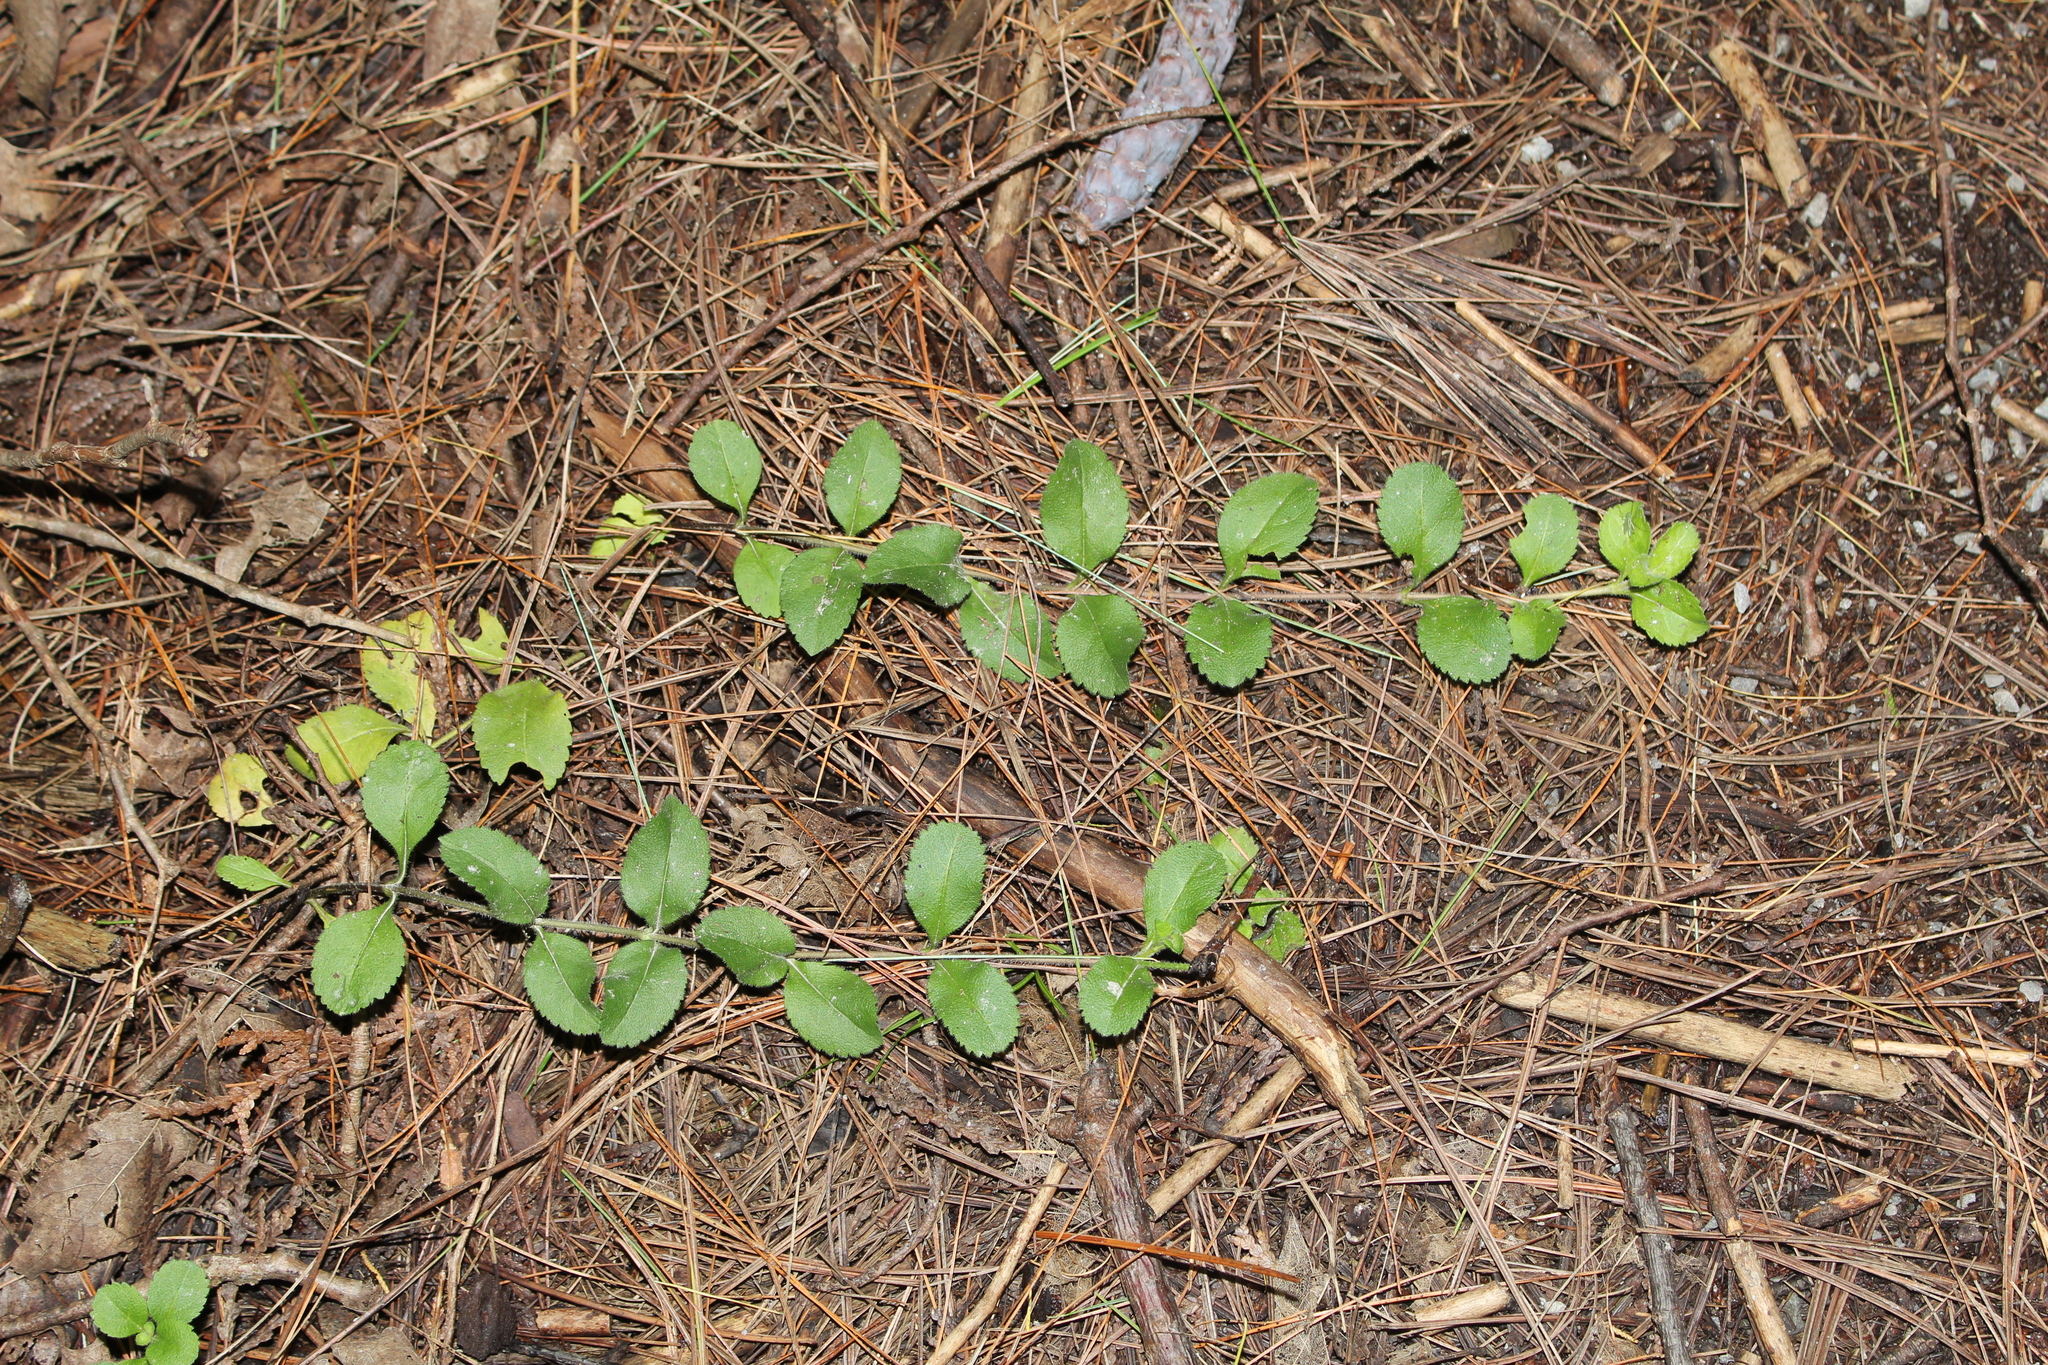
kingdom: Plantae
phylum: Tracheophyta
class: Magnoliopsida
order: Lamiales
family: Plantaginaceae
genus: Veronica
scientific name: Veronica officinalis
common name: Common speedwell
